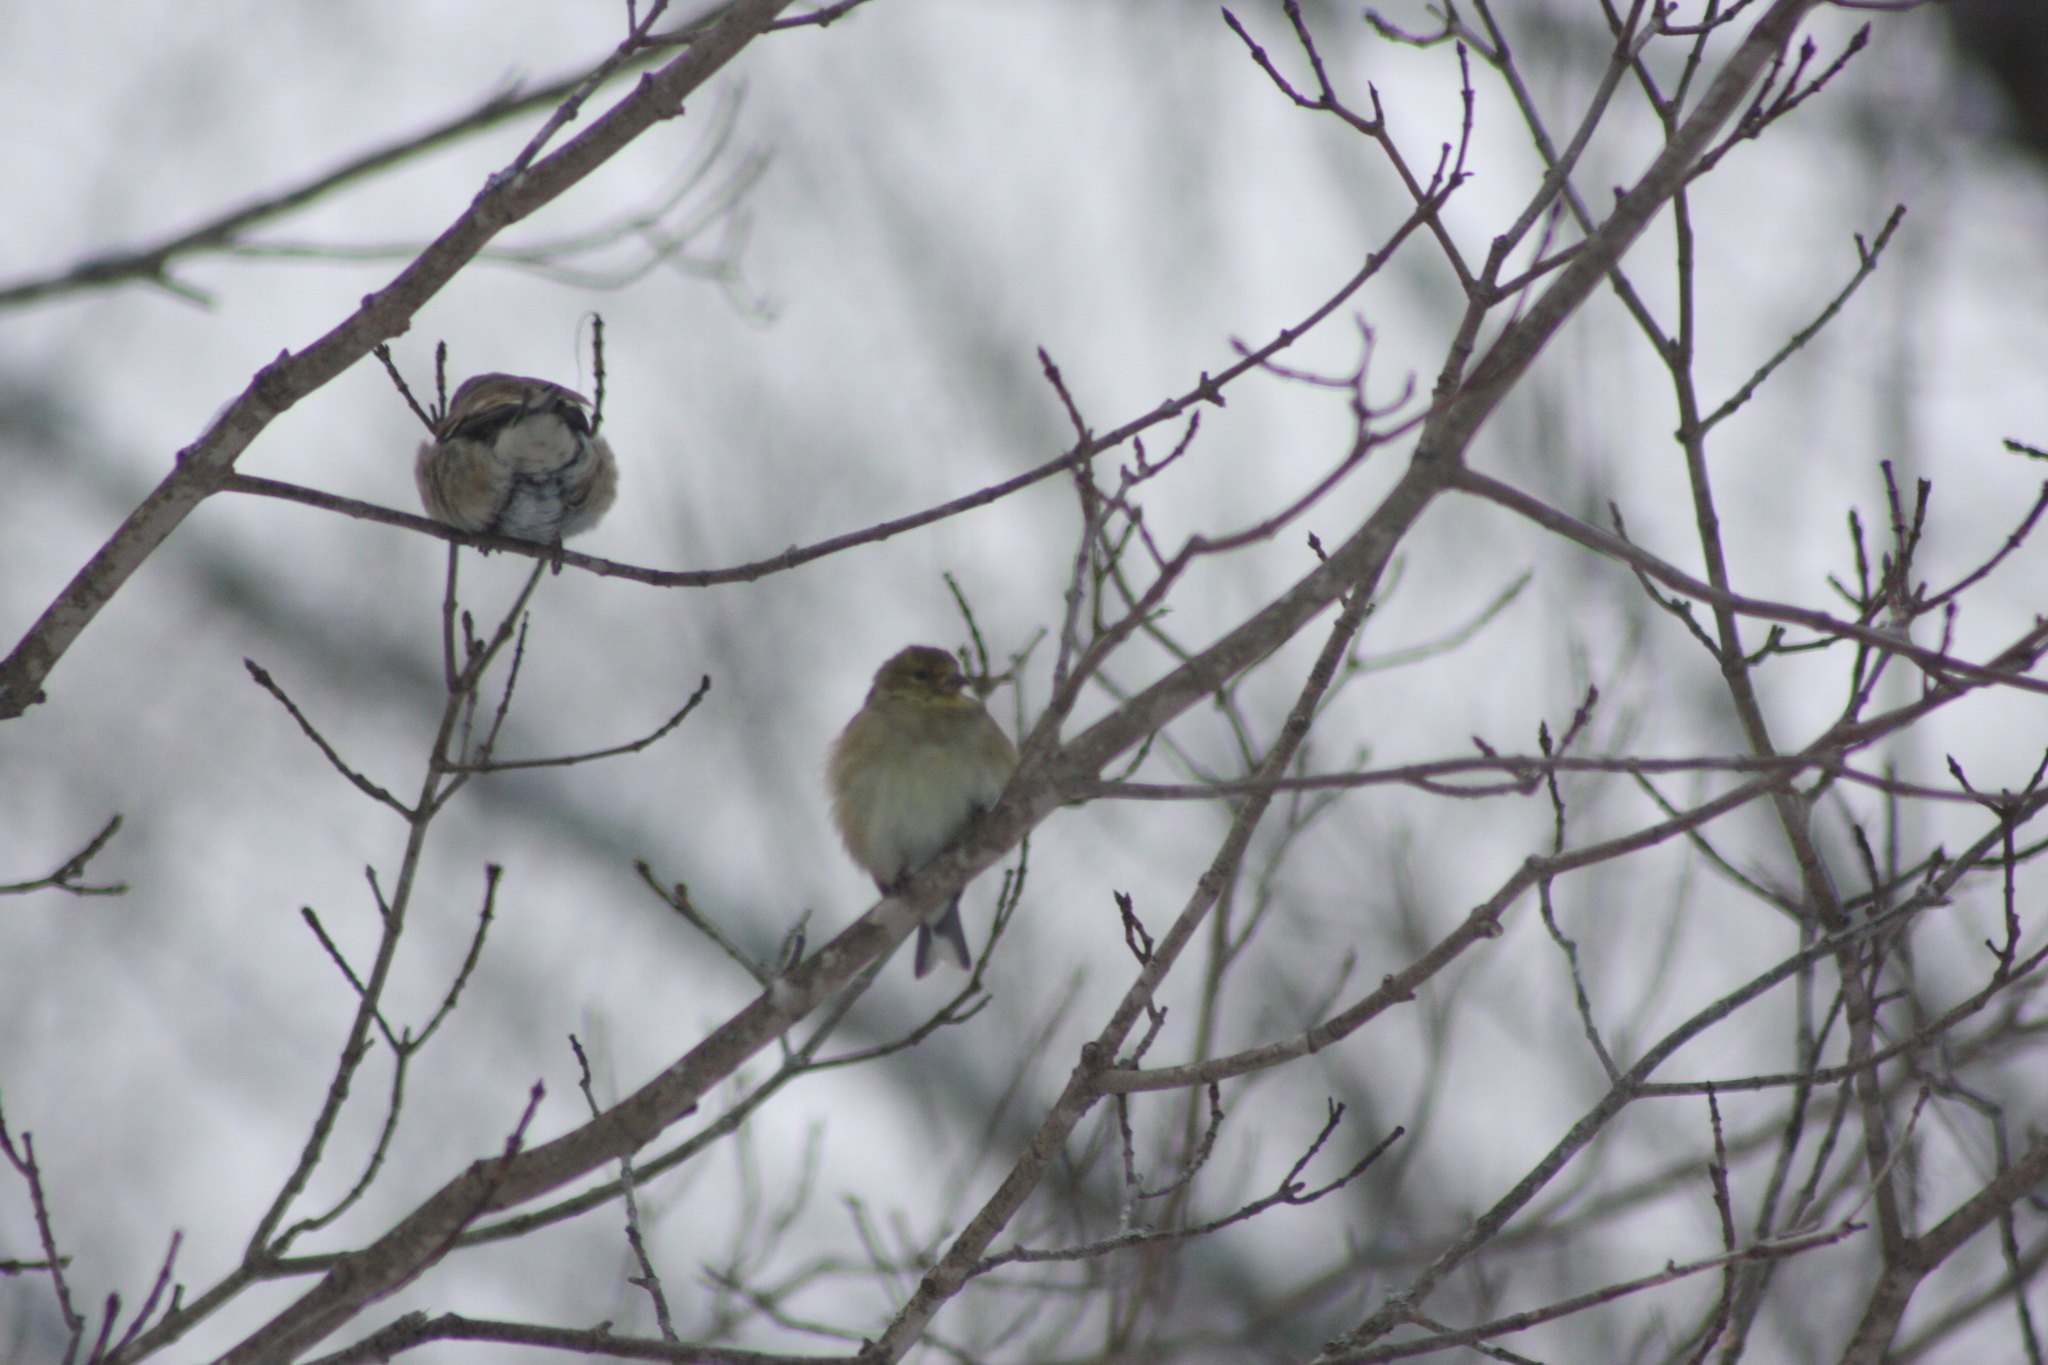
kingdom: Animalia
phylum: Chordata
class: Aves
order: Passeriformes
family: Fringillidae
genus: Spinus
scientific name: Spinus tristis
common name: American goldfinch
